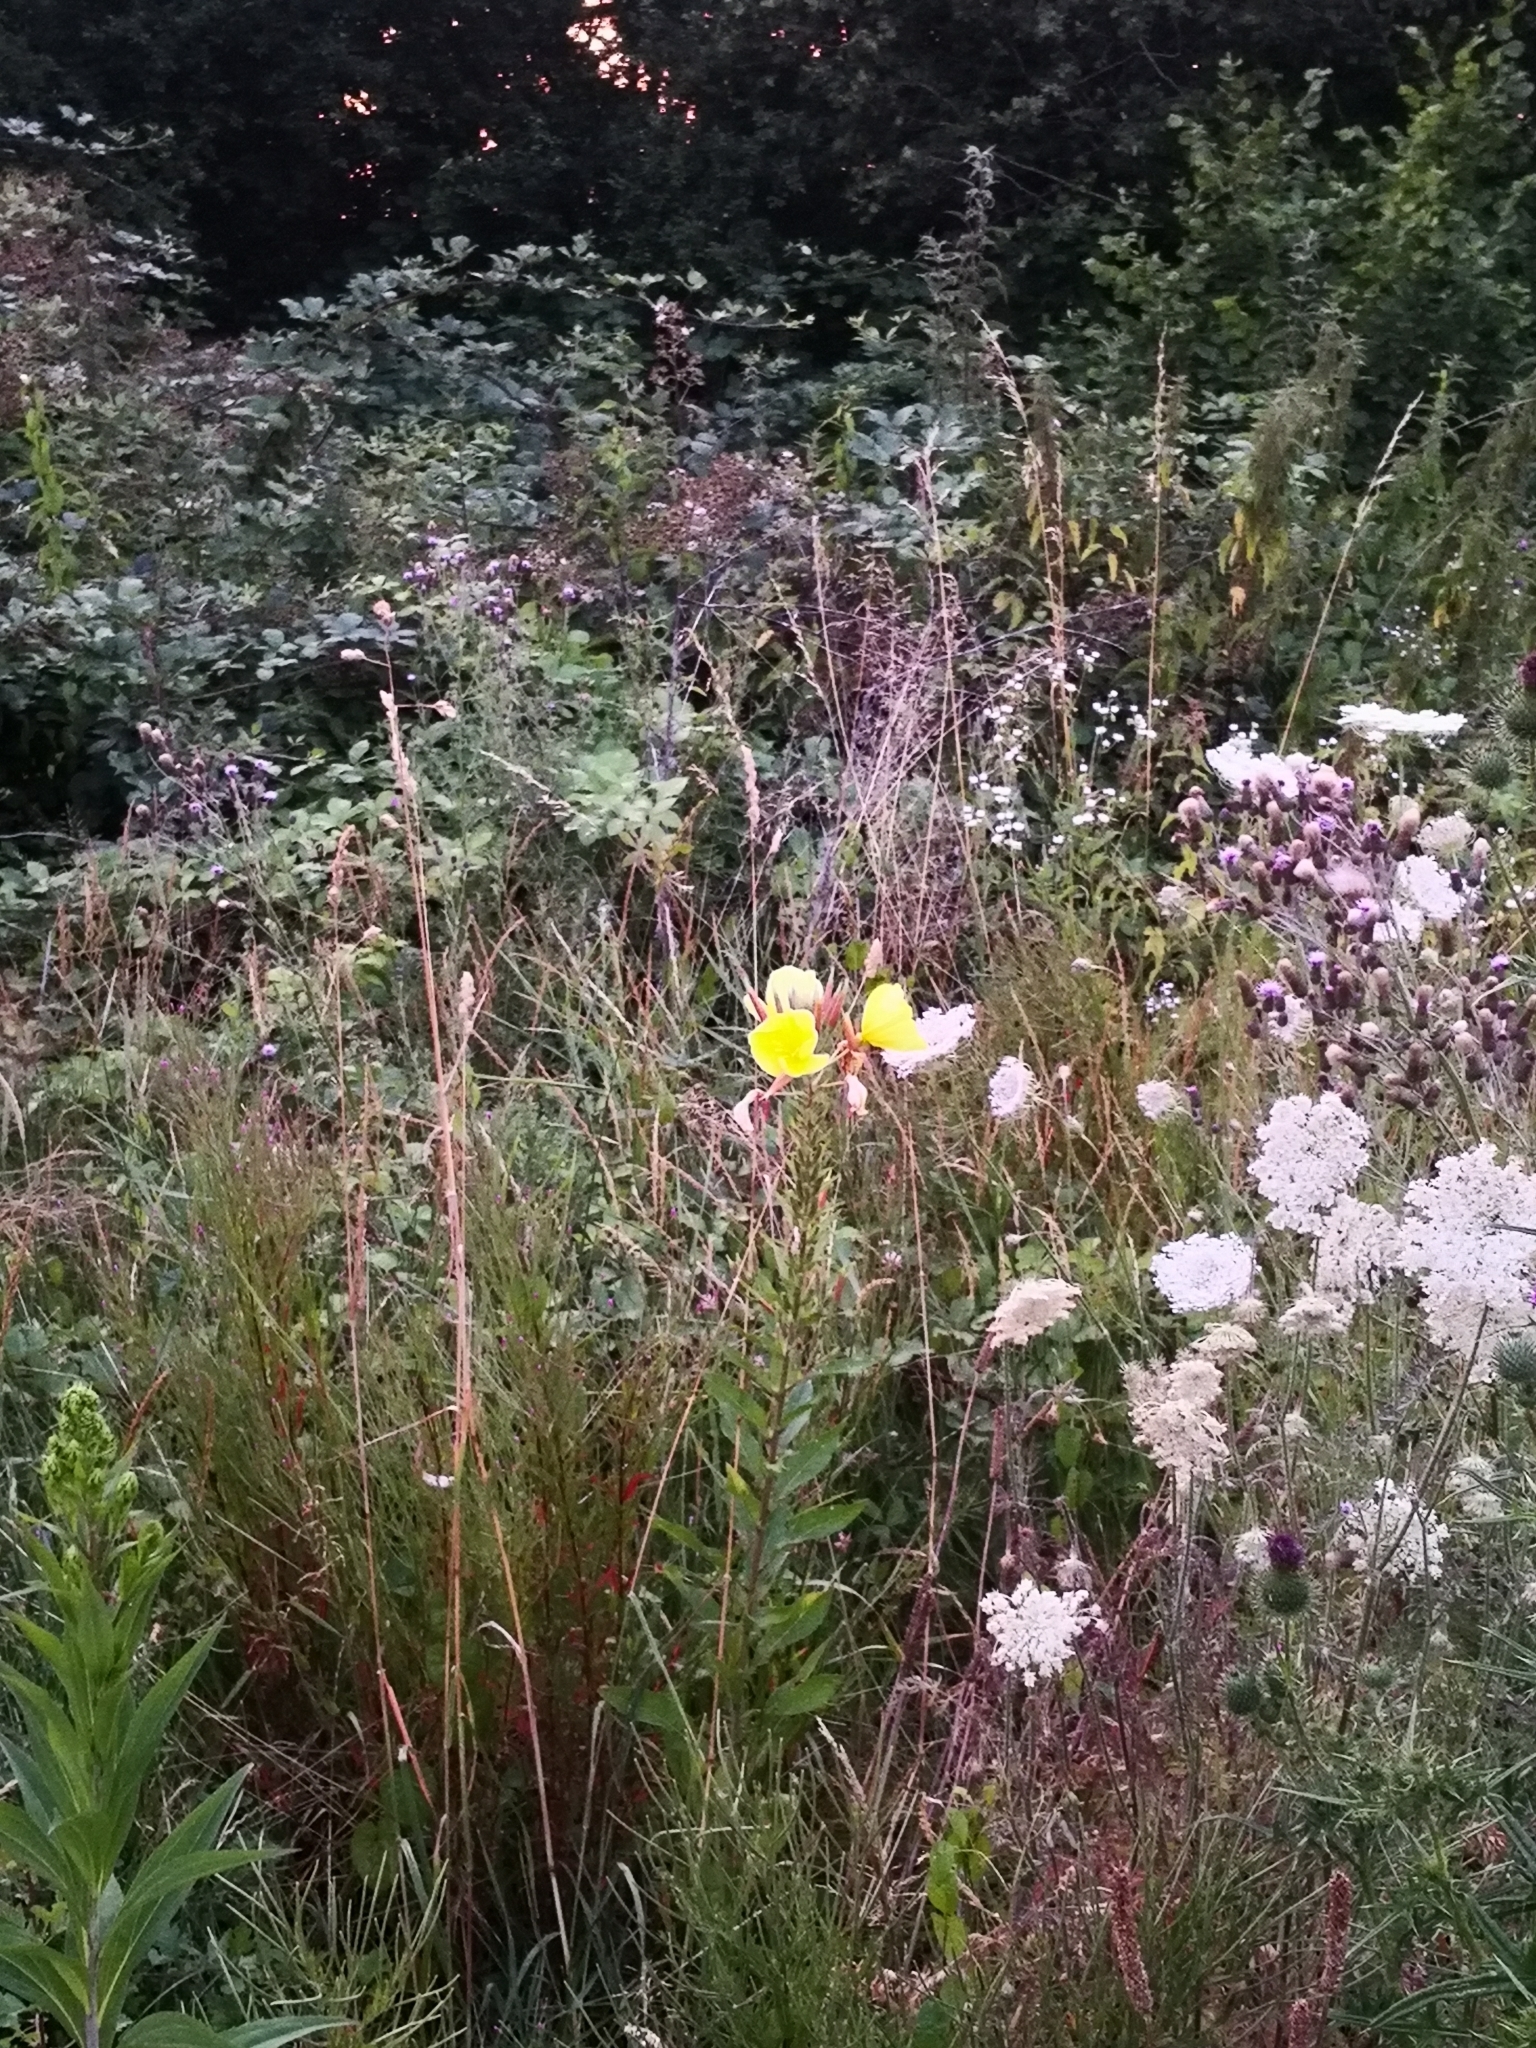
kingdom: Plantae
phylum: Tracheophyta
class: Magnoliopsida
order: Myrtales
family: Onagraceae
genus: Oenothera
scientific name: Oenothera biennis
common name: Common evening-primrose
